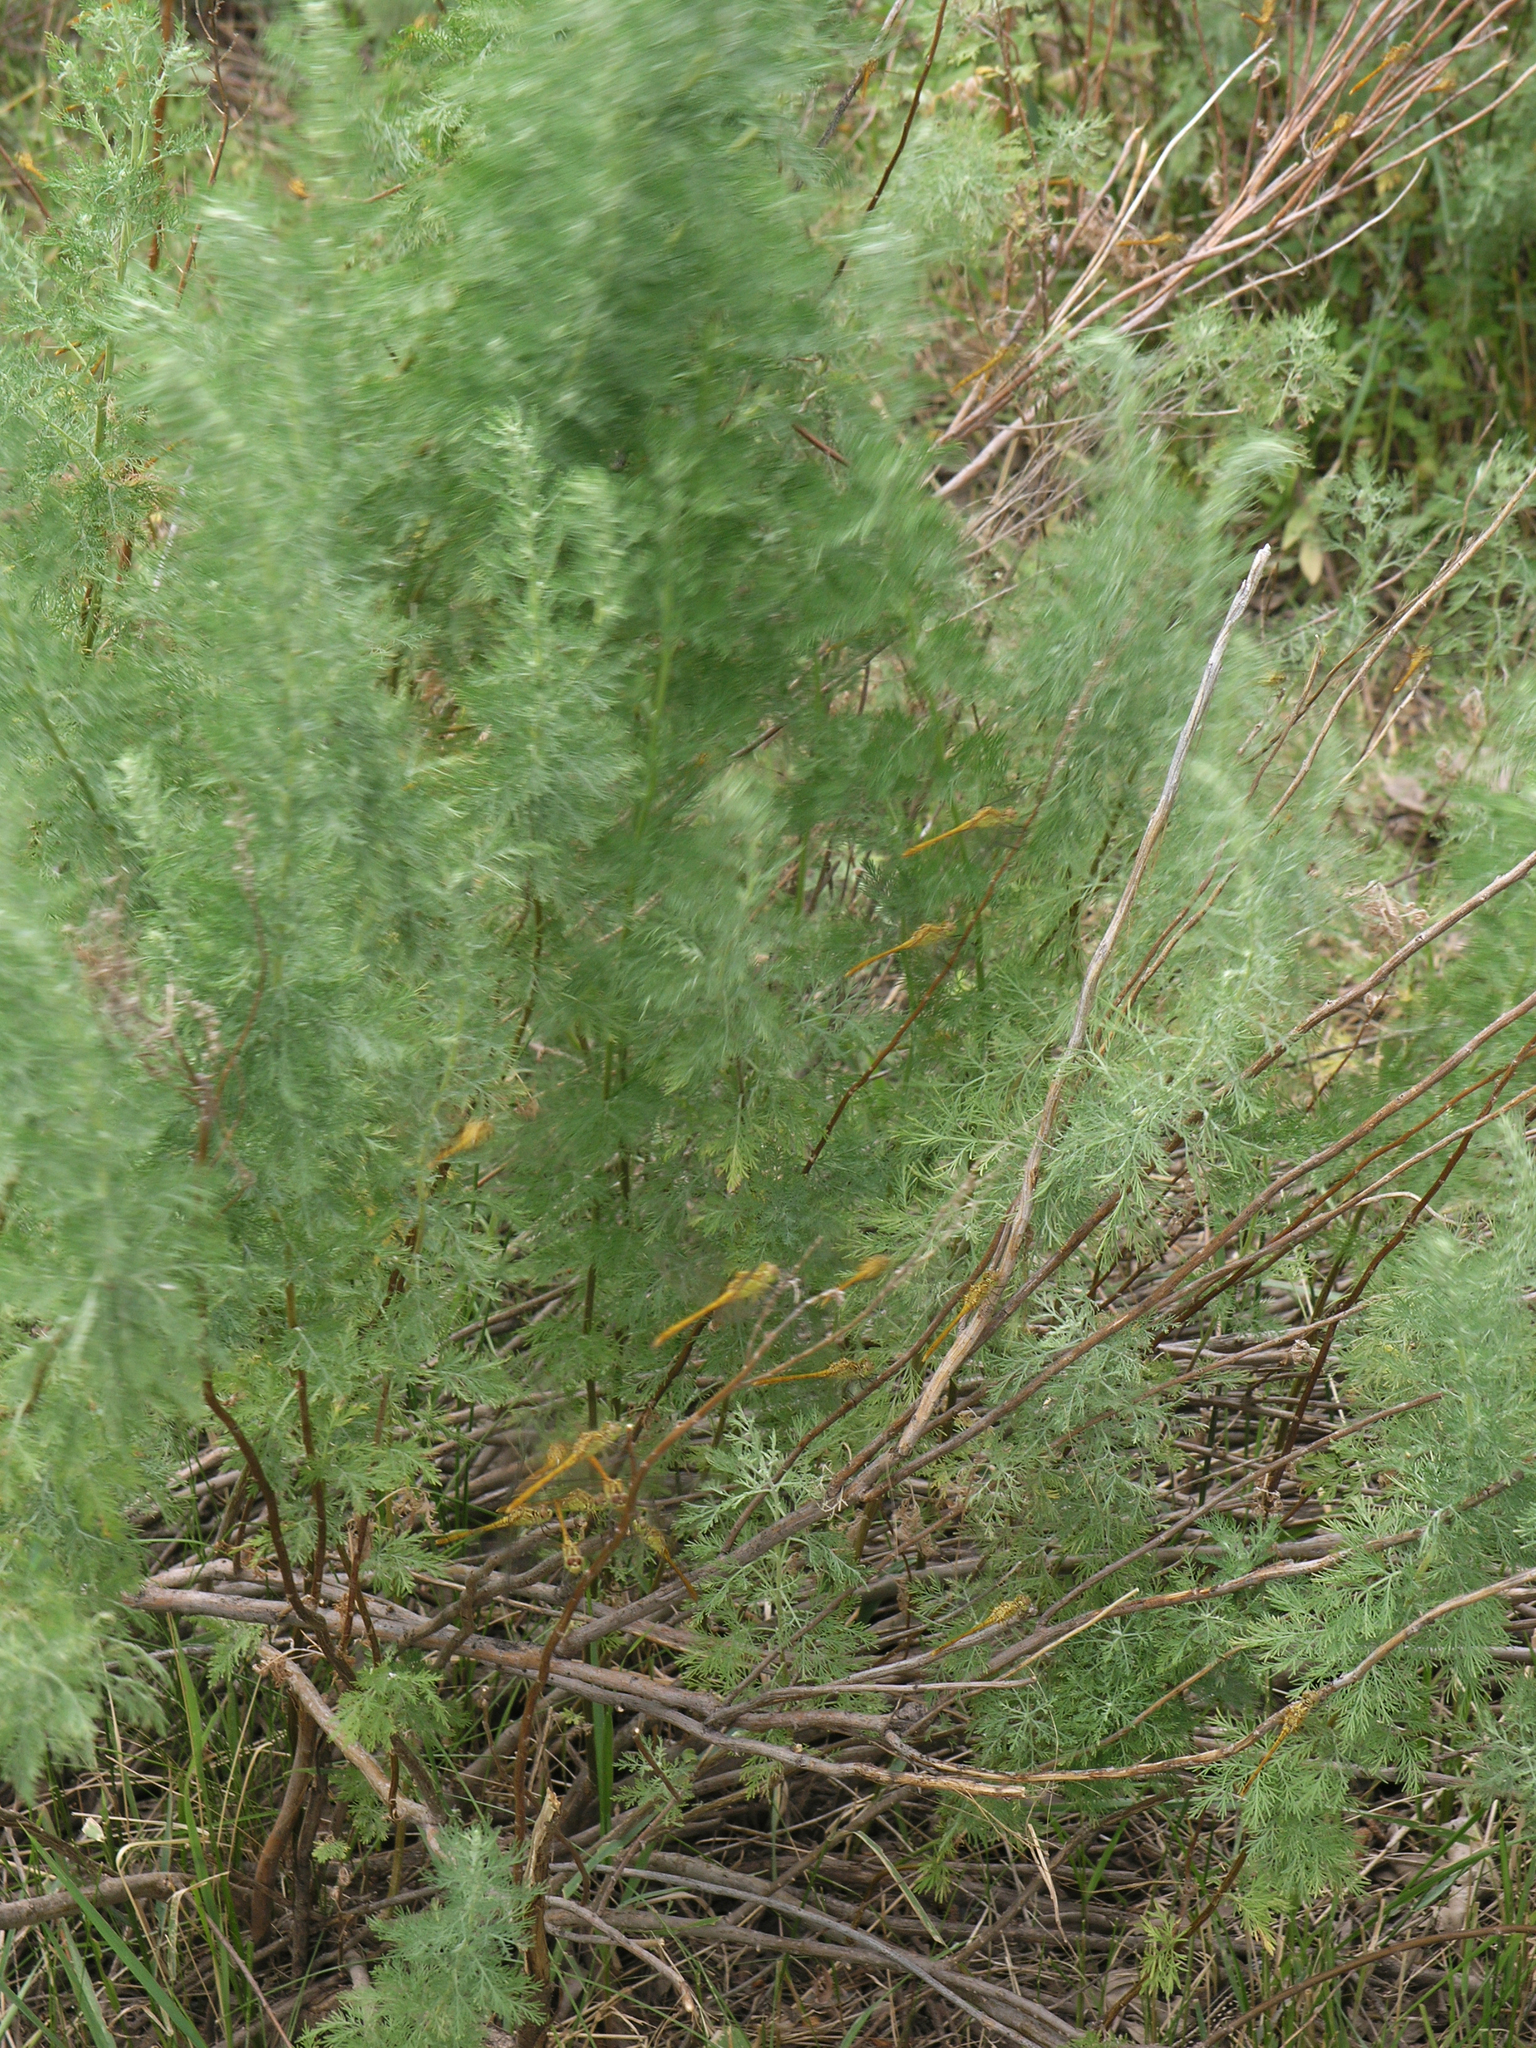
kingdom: Animalia
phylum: Arthropoda
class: Insecta
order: Odonata
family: Libellulidae
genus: Sympetrum
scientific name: Sympetrum meridionale
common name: Southern darter
